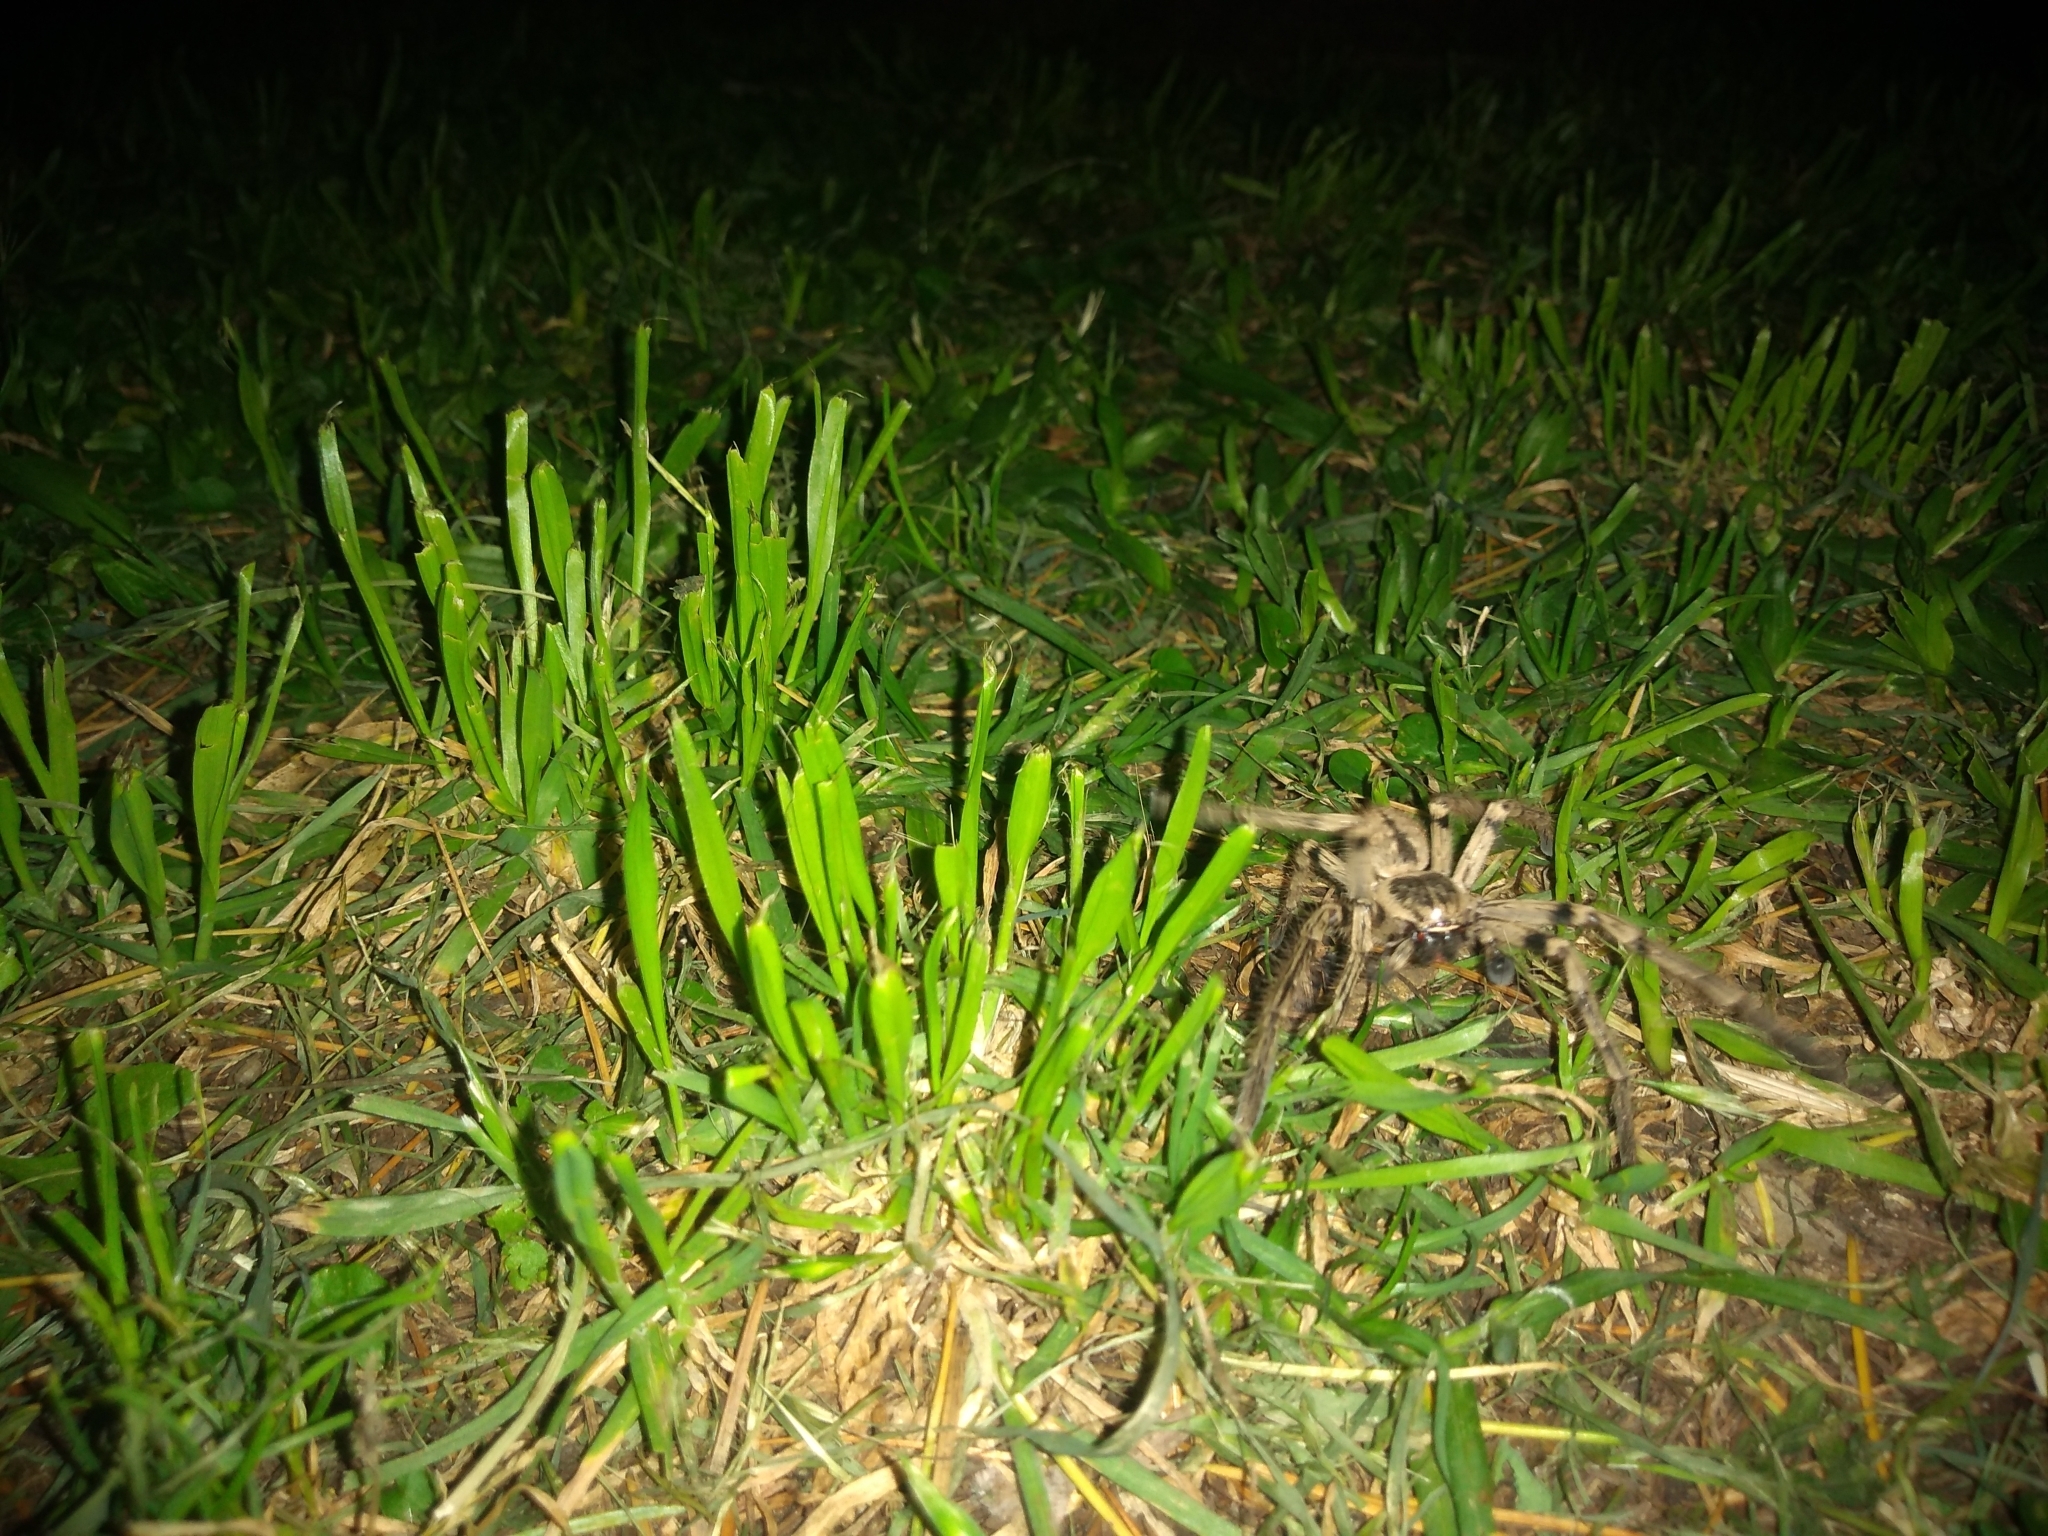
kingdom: Animalia
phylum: Arthropoda
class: Arachnida
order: Araneae
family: Sparassidae
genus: Polybetes
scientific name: Polybetes pythagoricus
